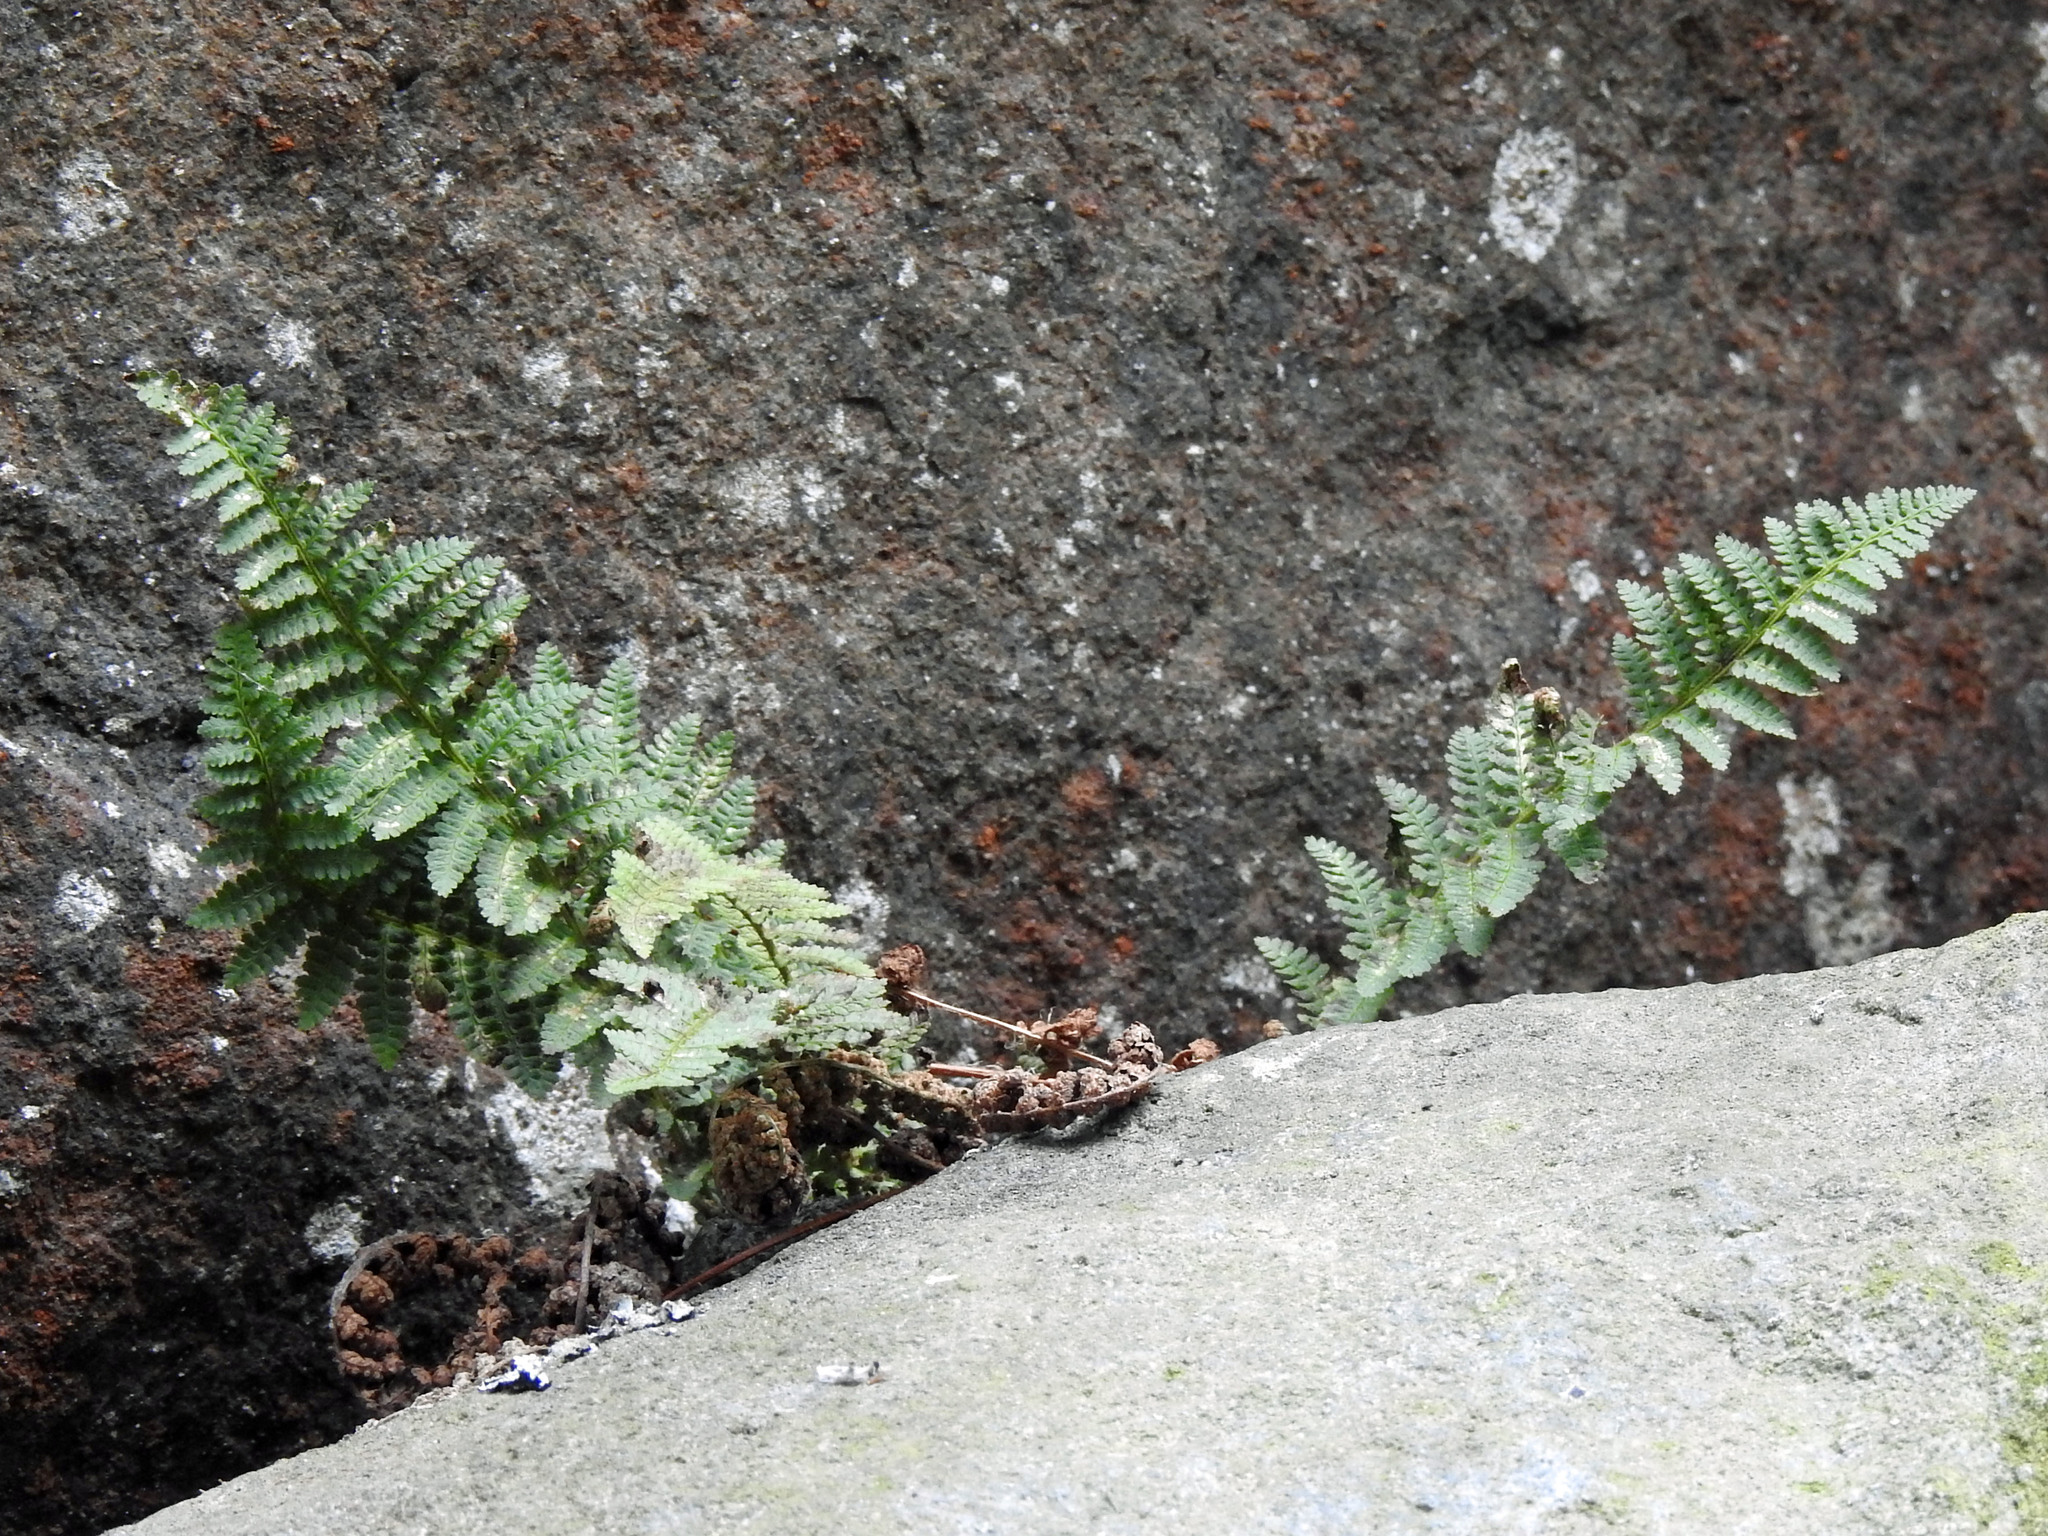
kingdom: Plantae
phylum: Tracheophyta
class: Polypodiopsida
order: Polypodiales
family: Dryopteridaceae
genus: Dryopteris
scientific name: Dryopteris fragrans
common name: Fragrant wood fern
